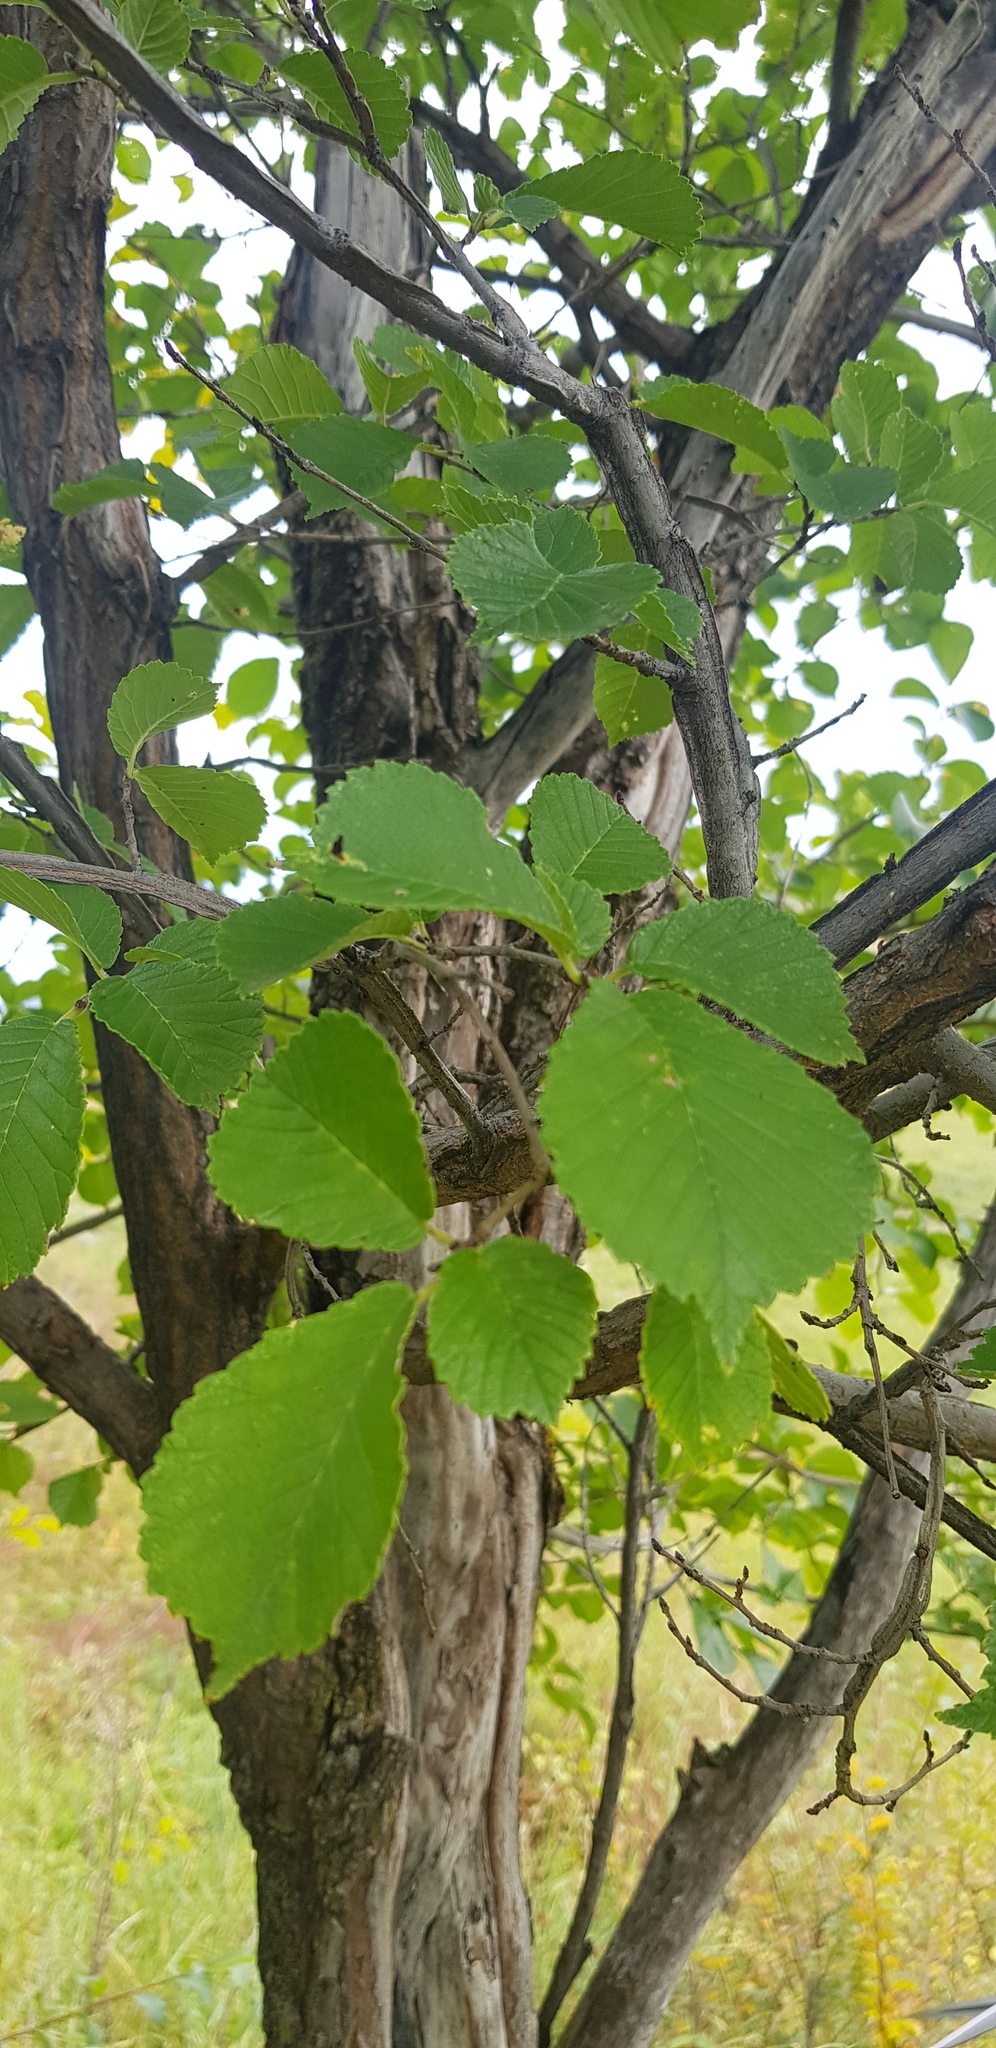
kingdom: Plantae
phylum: Tracheophyta
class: Magnoliopsida
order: Rosales
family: Ulmaceae
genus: Ulmus
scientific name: Ulmus macrocarpa
